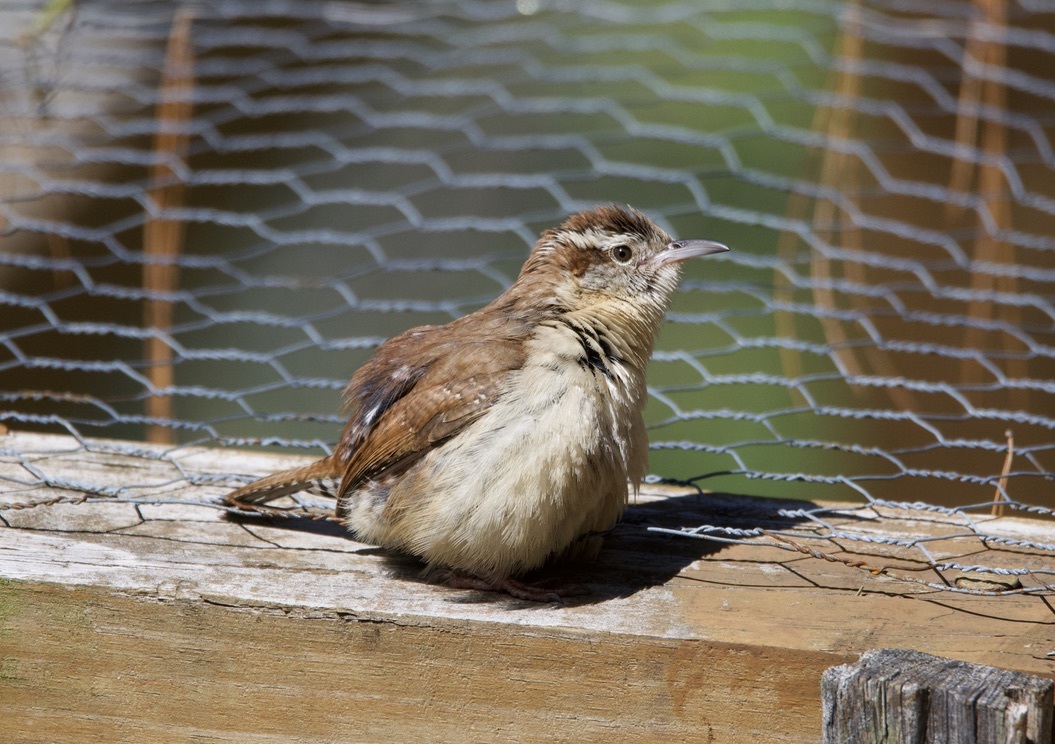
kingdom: Animalia
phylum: Chordata
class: Aves
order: Passeriformes
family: Troglodytidae
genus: Thryothorus
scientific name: Thryothorus ludovicianus
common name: Carolina wren
